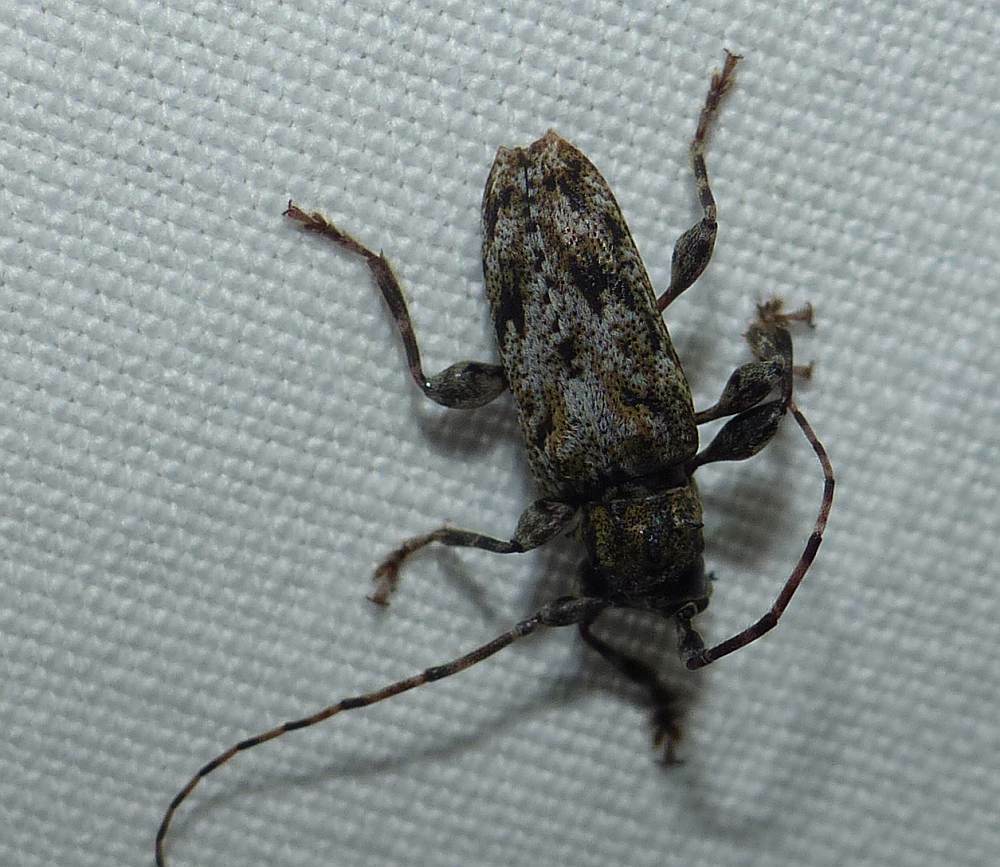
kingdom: Animalia
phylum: Arthropoda
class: Insecta
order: Coleoptera
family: Cerambycidae
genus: Aegomorphus
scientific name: Aegomorphus modestus
